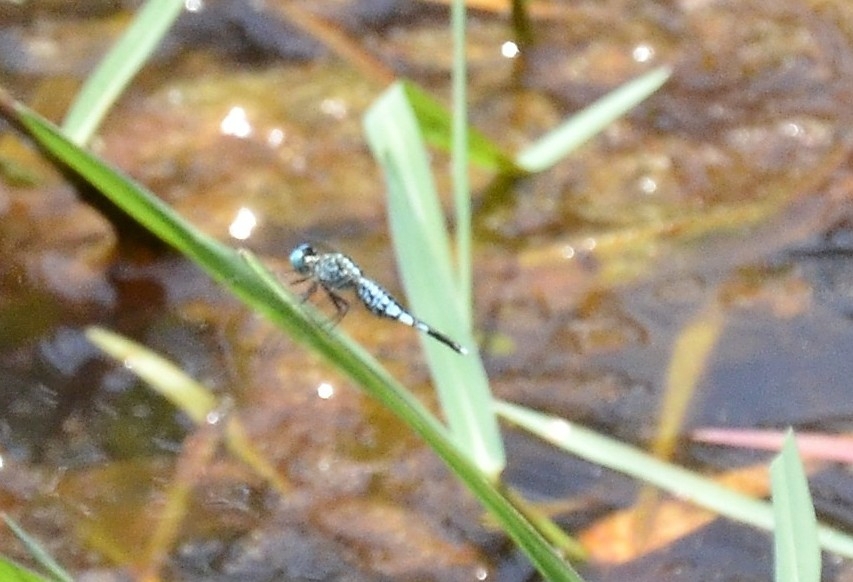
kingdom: Animalia
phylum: Arthropoda
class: Insecta
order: Odonata
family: Libellulidae
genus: Acisoma
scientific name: Acisoma panorpoides
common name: Asian pintail
